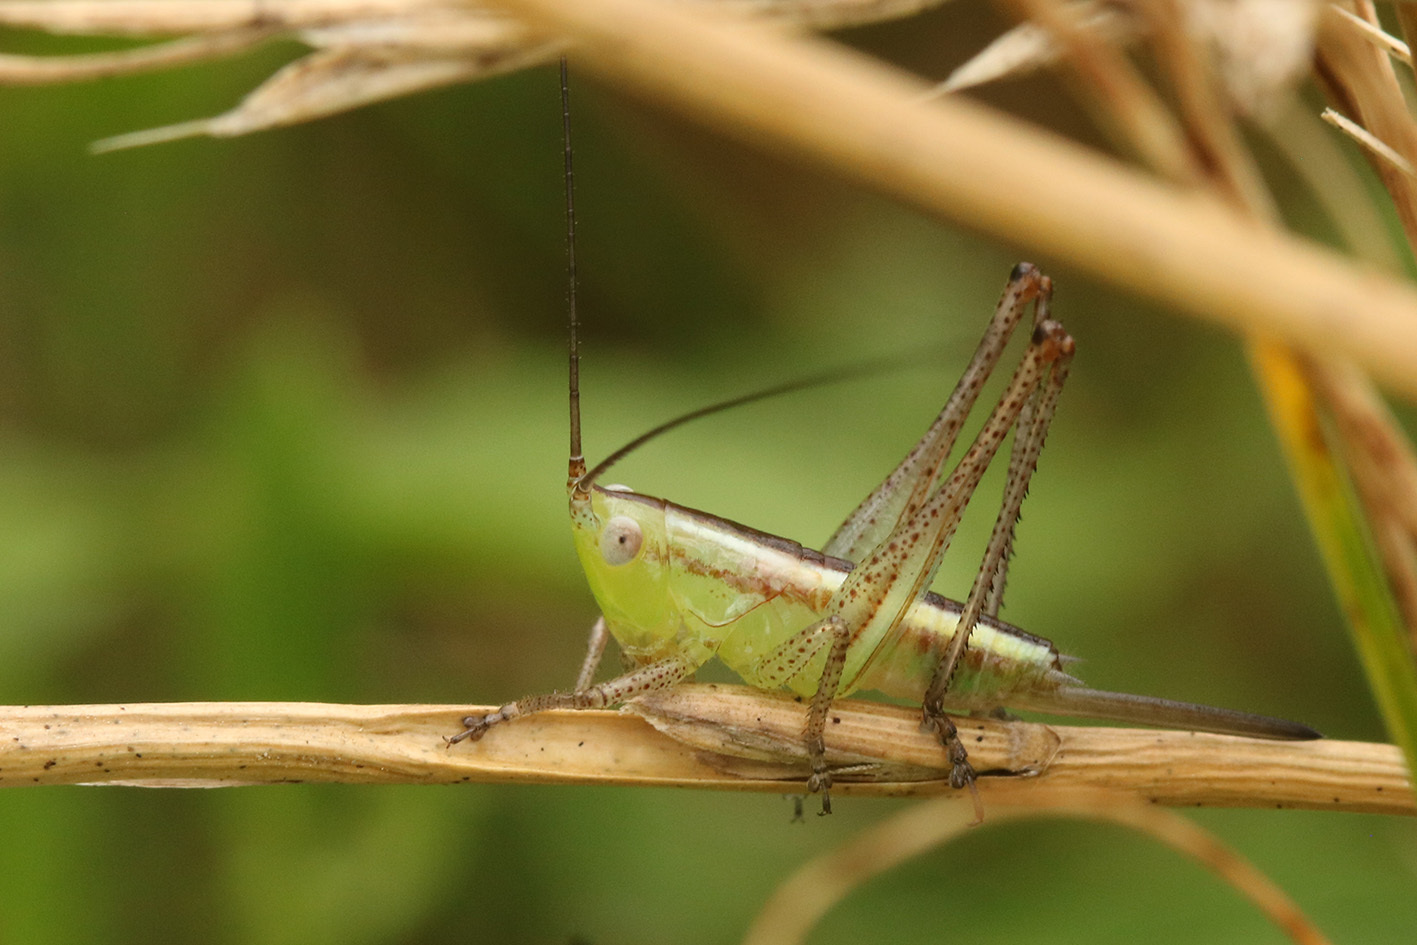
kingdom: Animalia
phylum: Arthropoda
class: Insecta
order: Orthoptera
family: Tettigoniidae
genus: Conocephalus
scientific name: Conocephalus longipes
